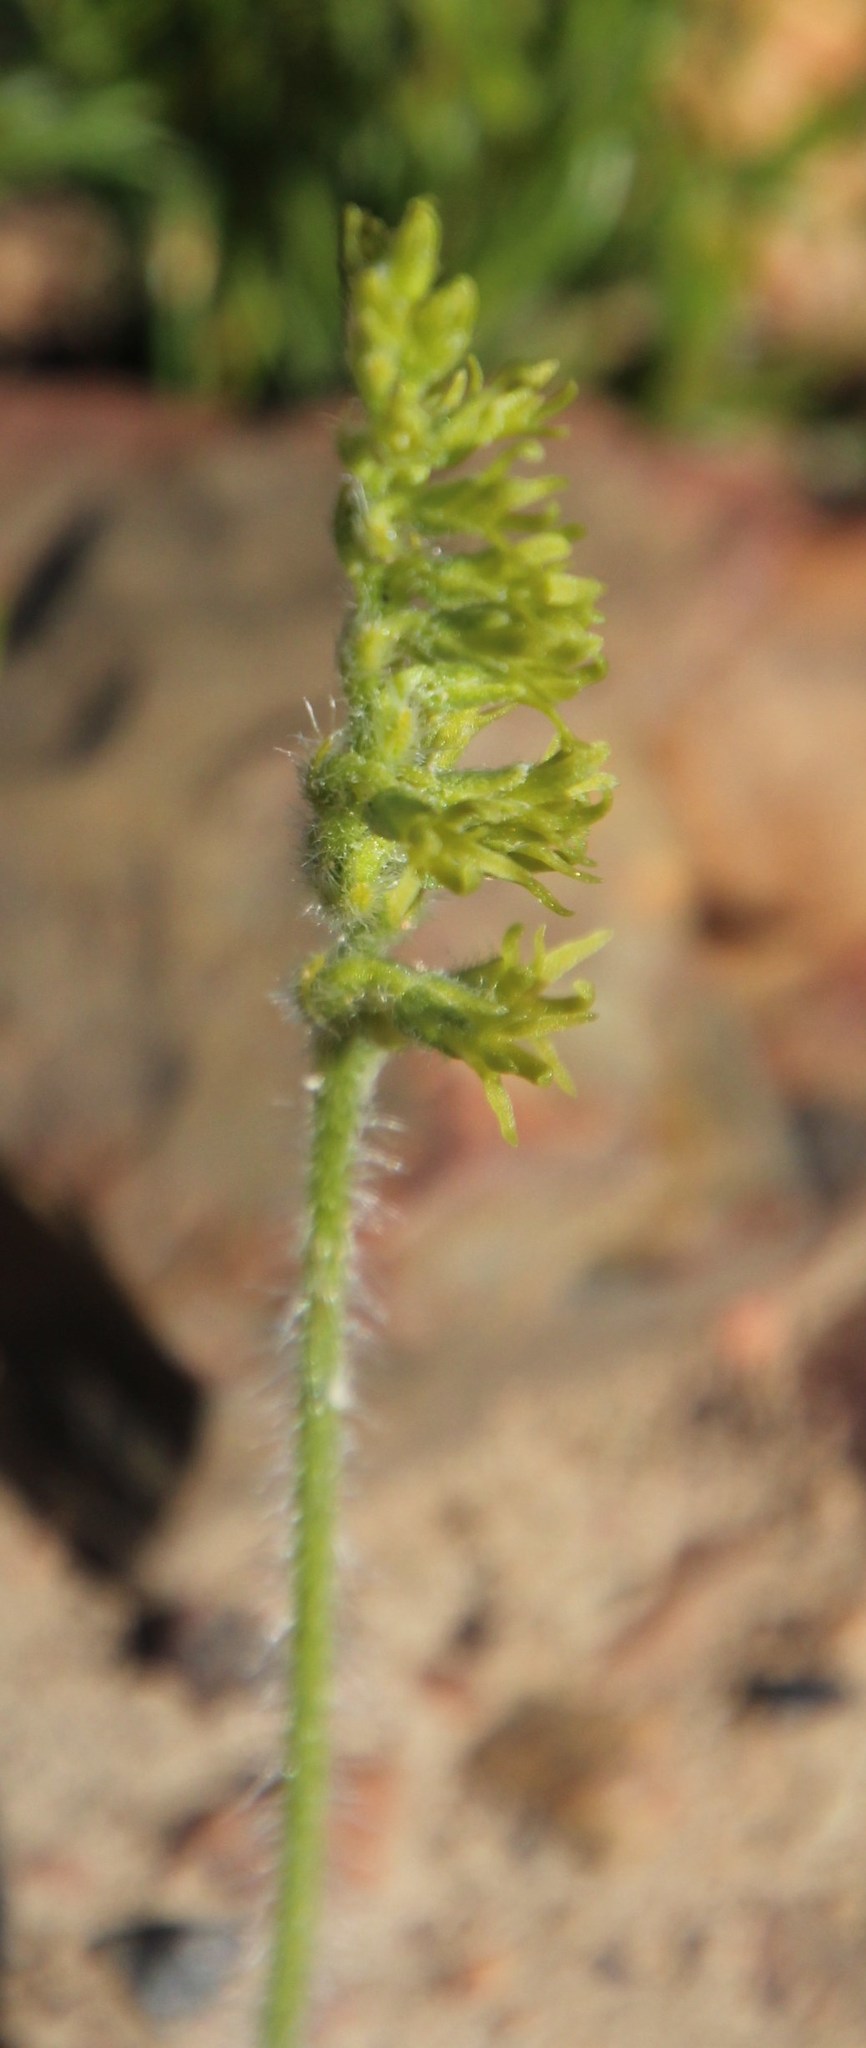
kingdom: Plantae
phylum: Tracheophyta
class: Liliopsida
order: Asparagales
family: Orchidaceae
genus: Holothrix
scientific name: Holothrix cernua
